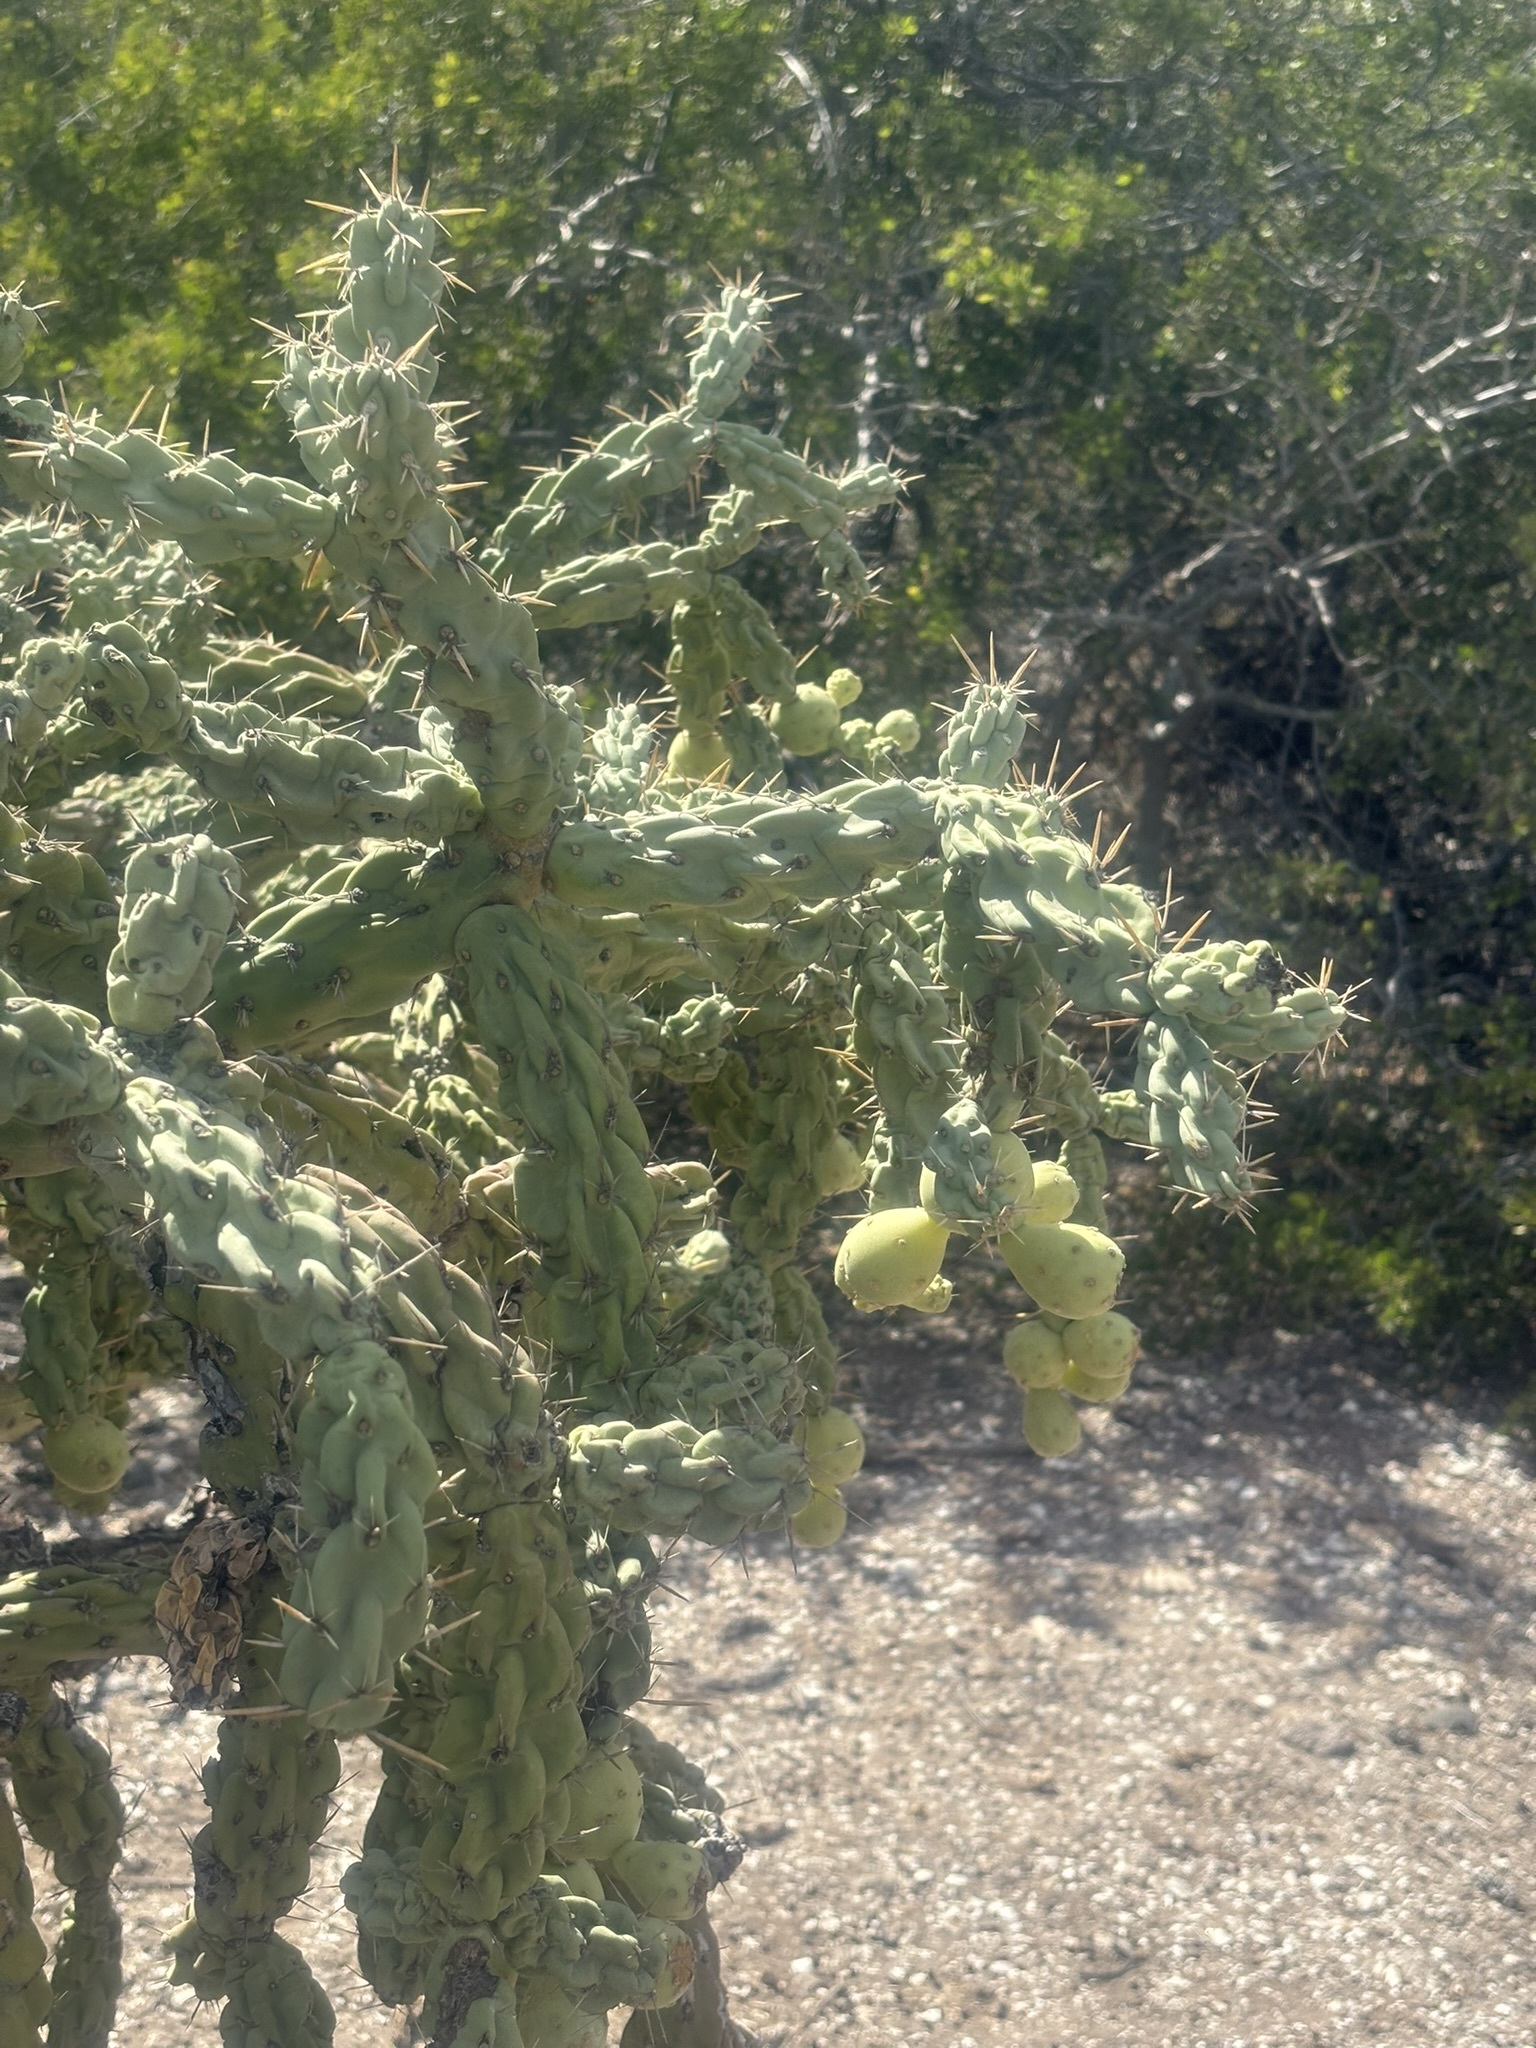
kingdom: Plantae
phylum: Tracheophyta
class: Magnoliopsida
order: Caryophyllales
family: Cactaceae
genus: Cylindropuntia
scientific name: Cylindropuntia cholla
